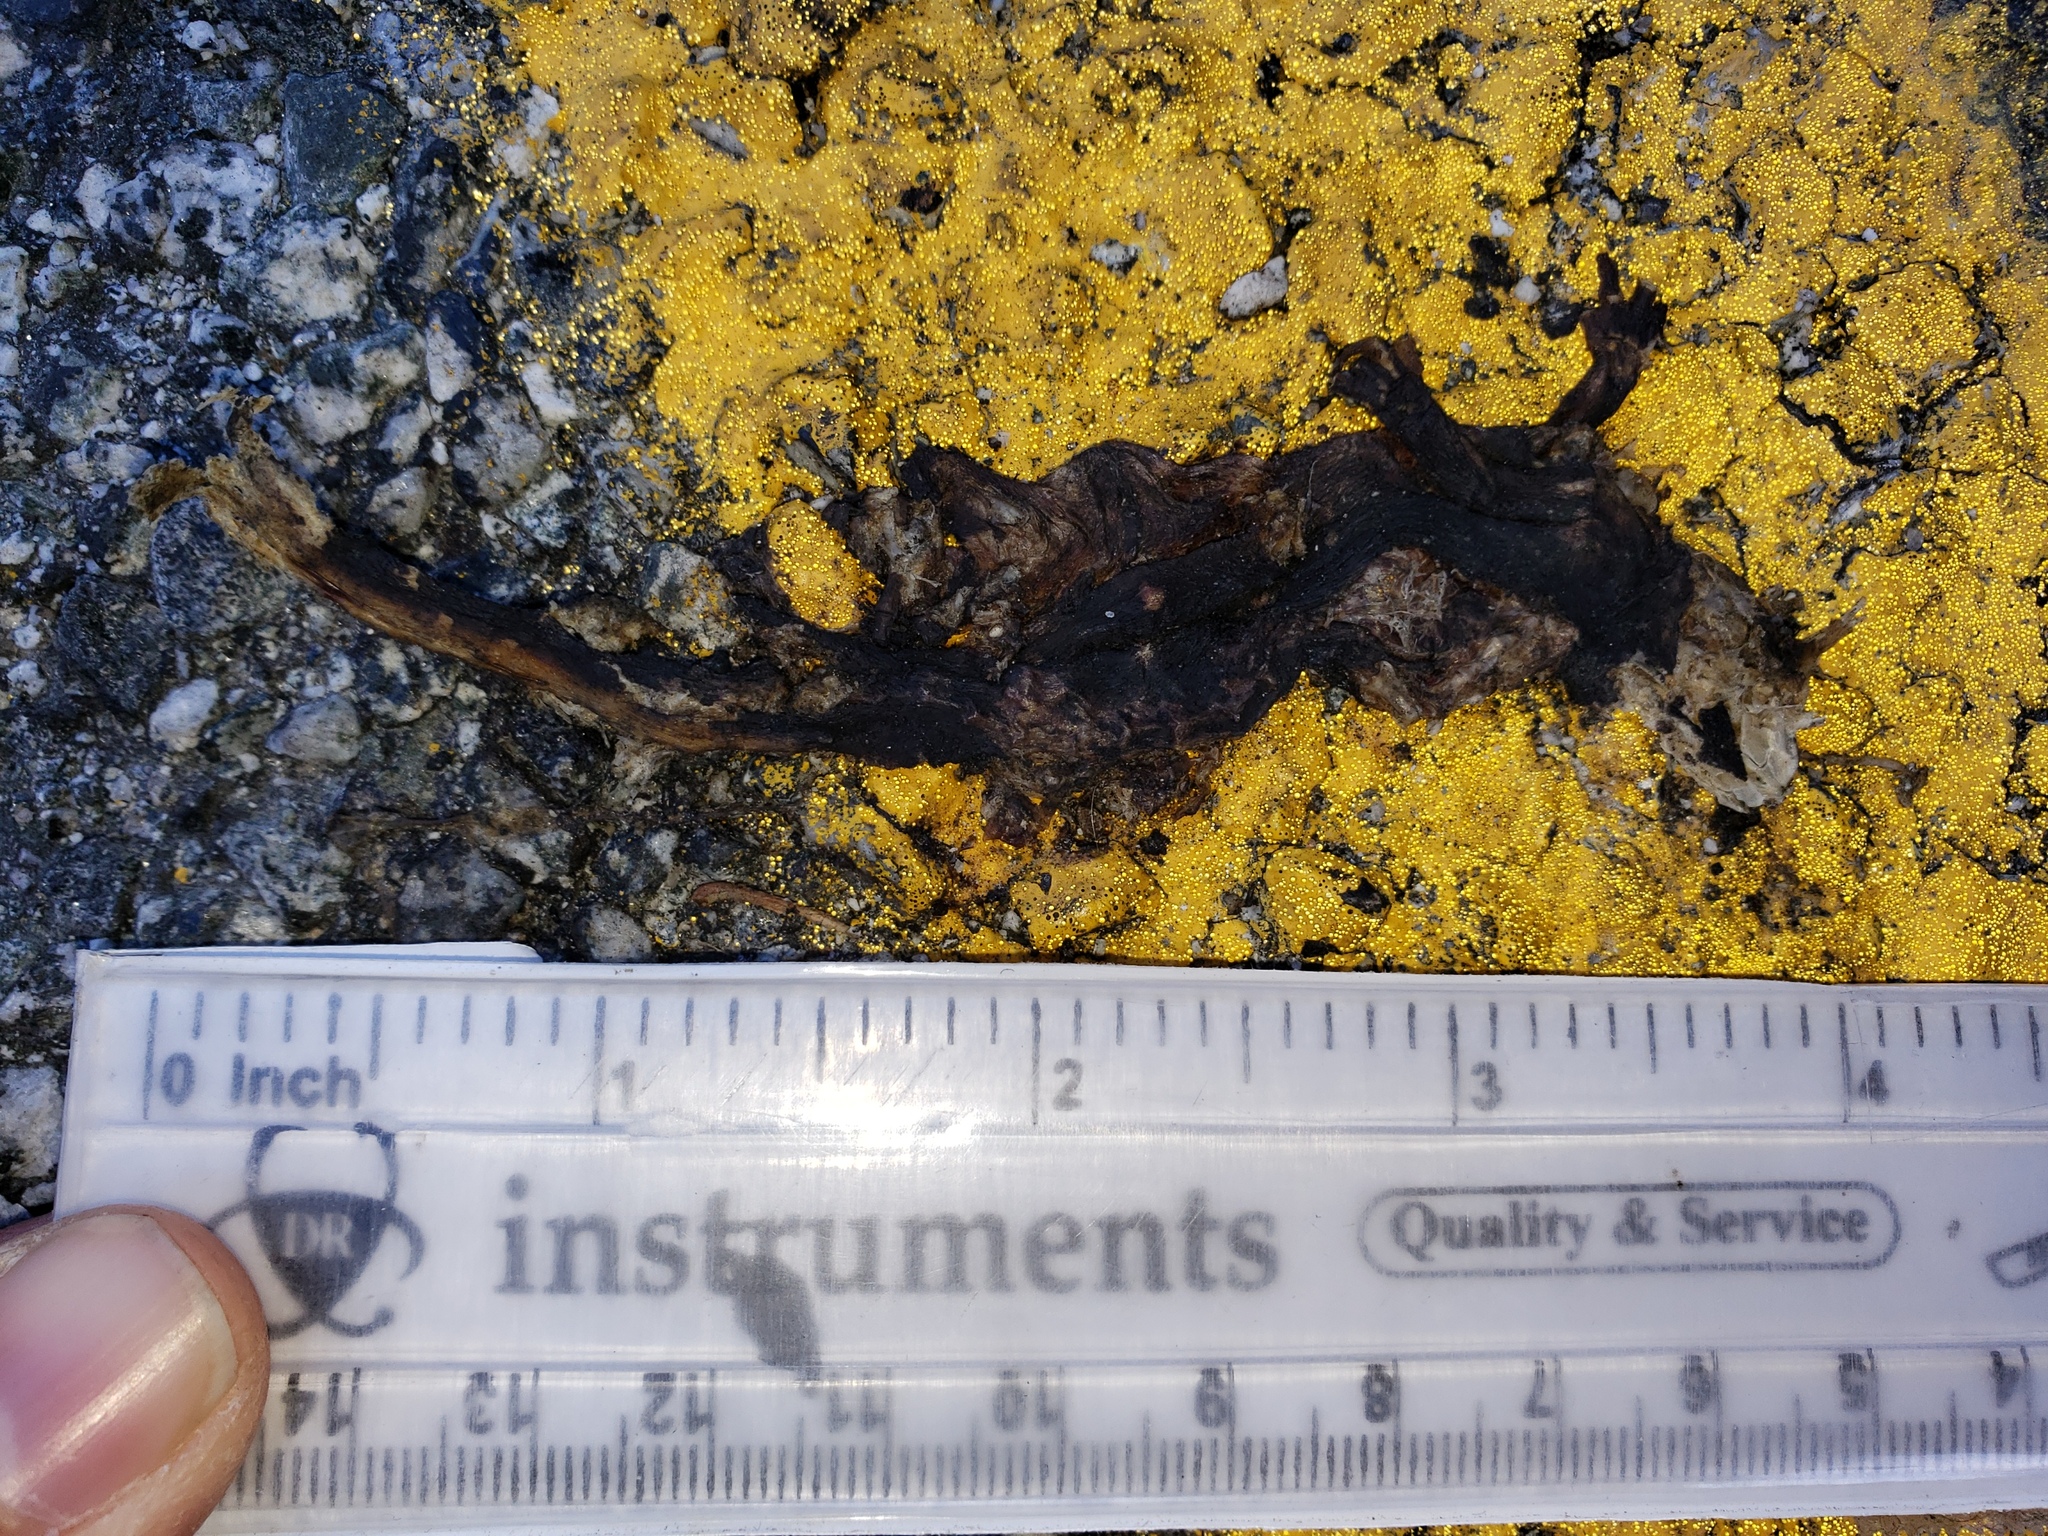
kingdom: Animalia
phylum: Chordata
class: Amphibia
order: Caudata
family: Salamandridae
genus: Taricha
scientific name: Taricha
